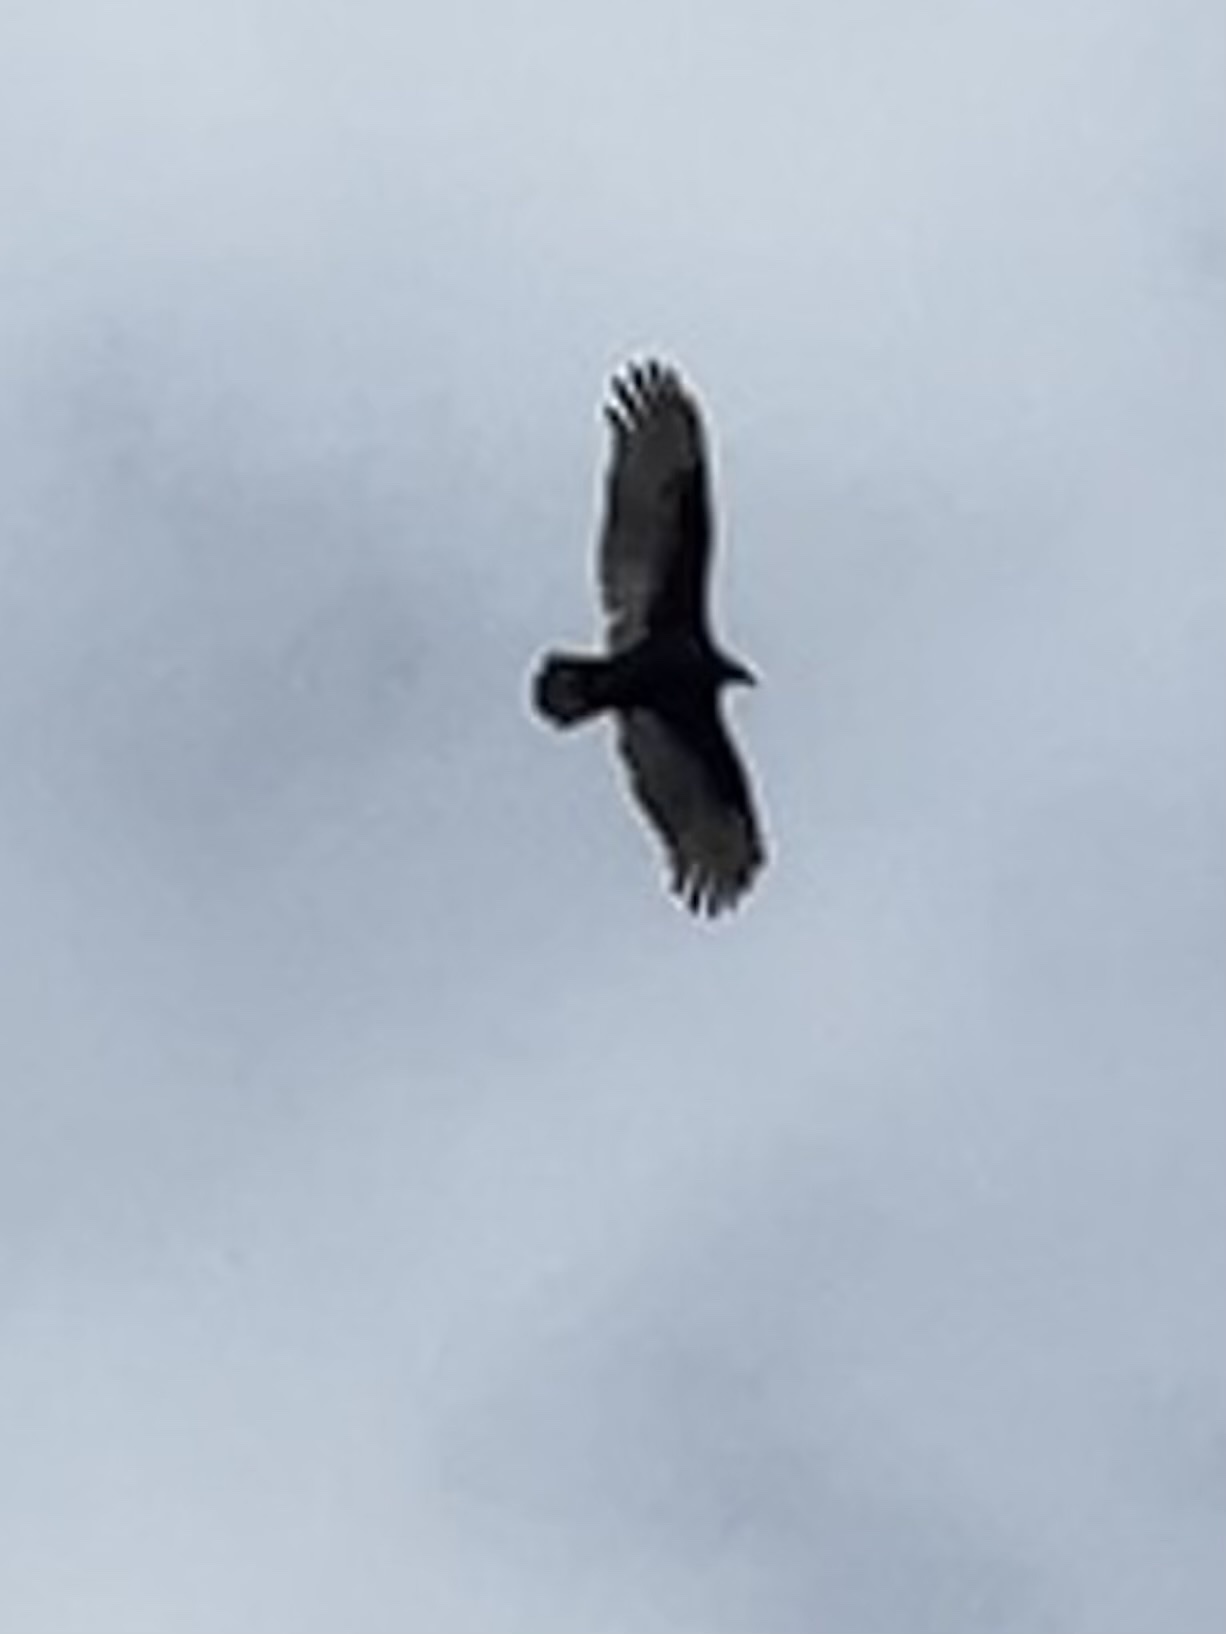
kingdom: Animalia
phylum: Chordata
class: Aves
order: Accipitriformes
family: Cathartidae
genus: Cathartes
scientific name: Cathartes aura
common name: Turkey vulture
